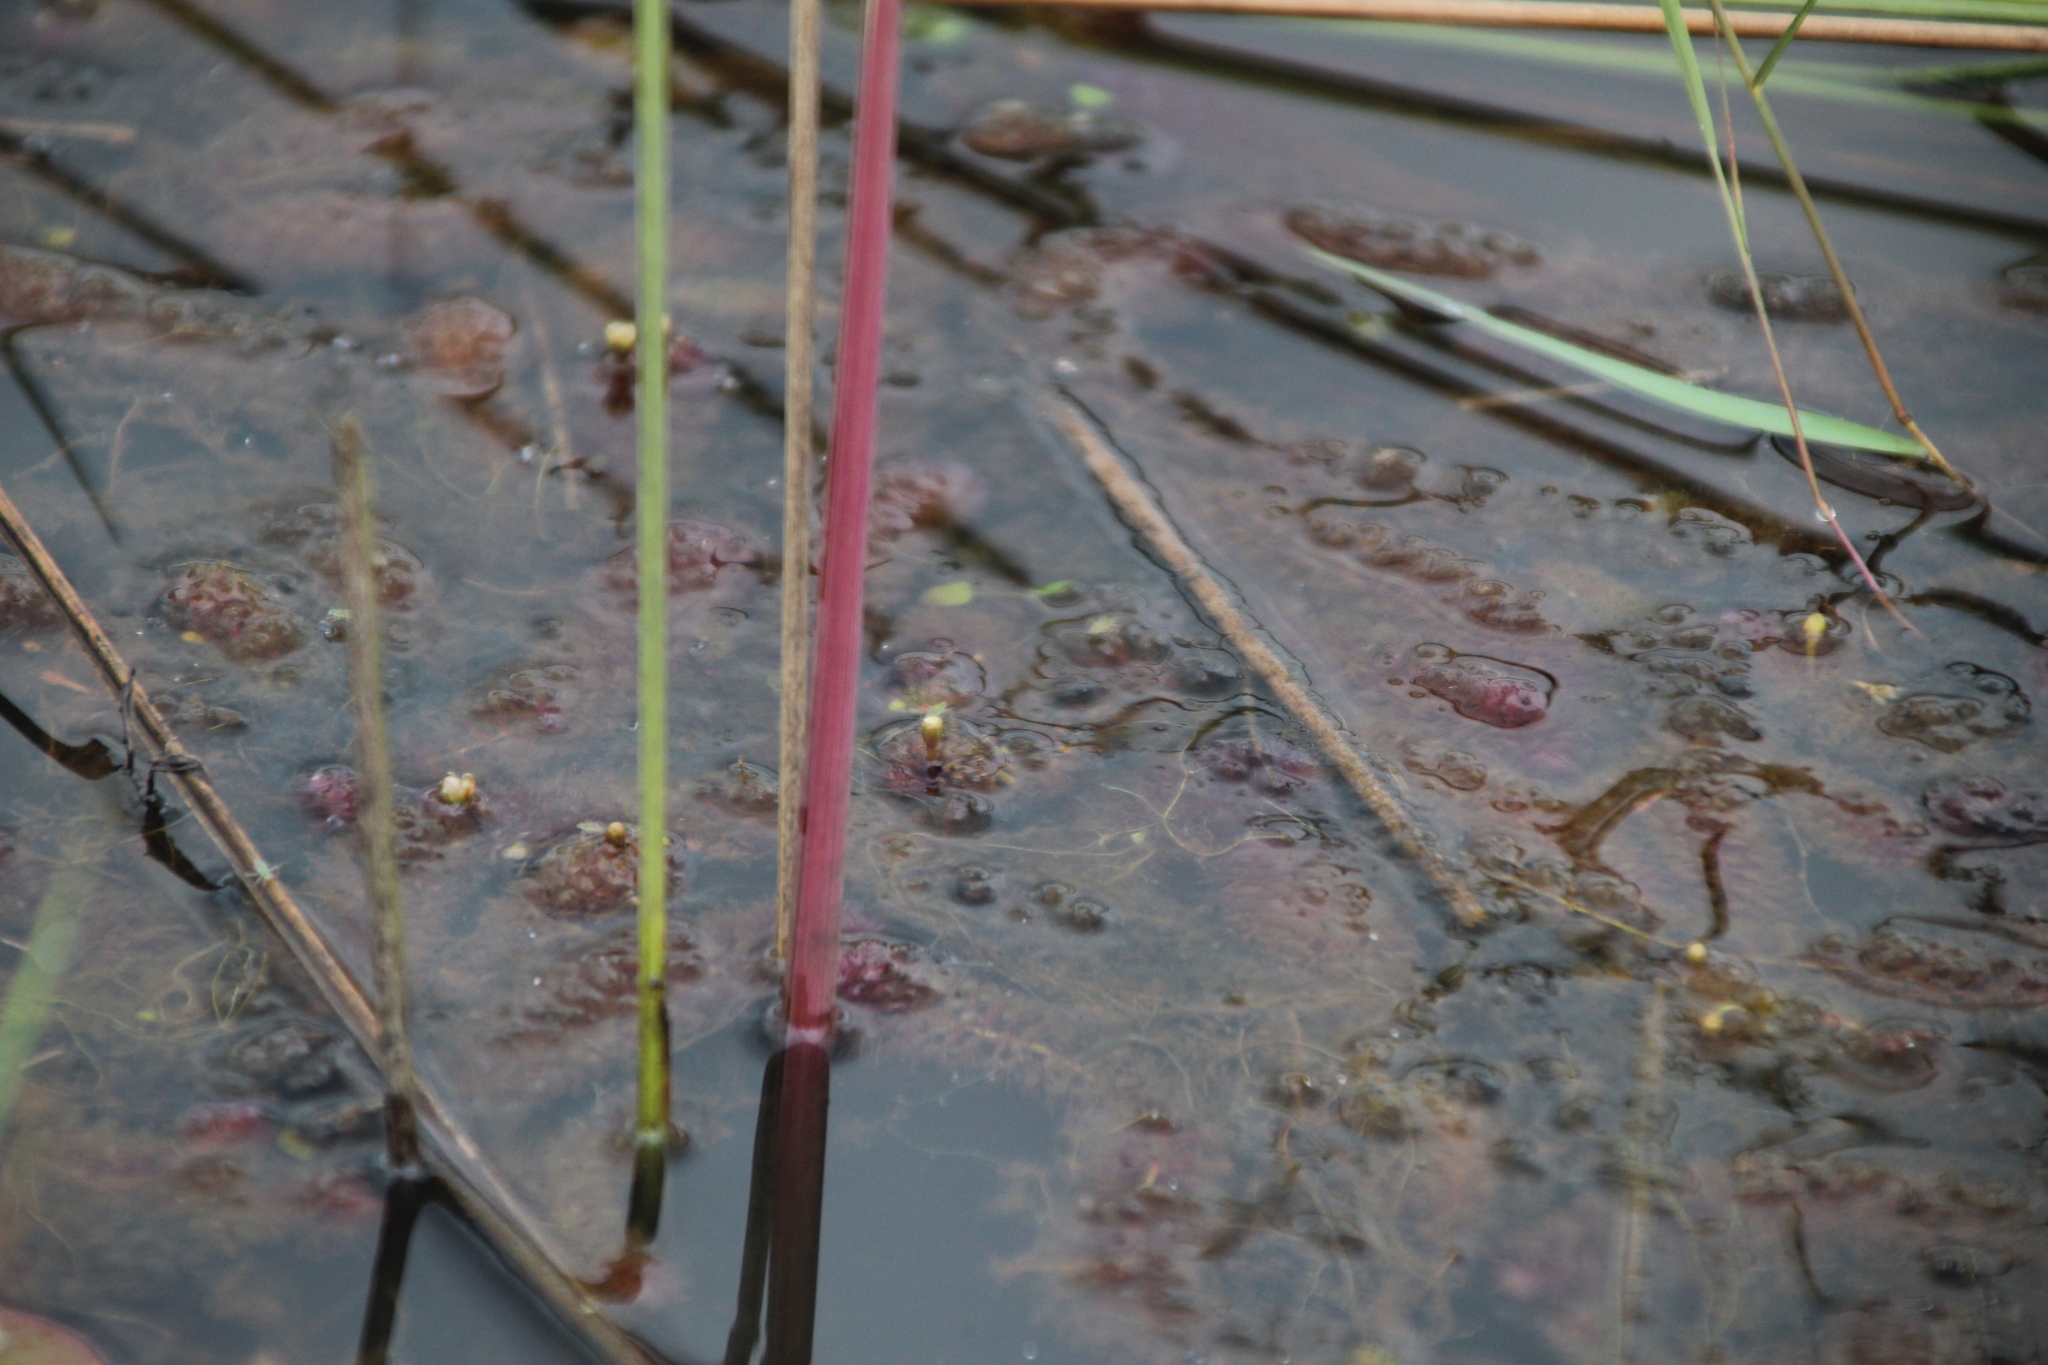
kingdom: Plantae
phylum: Tracheophyta
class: Magnoliopsida
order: Caryophyllales
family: Droseraceae
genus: Aldrovanda
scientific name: Aldrovanda vesiculosa
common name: Waterwheel plant
